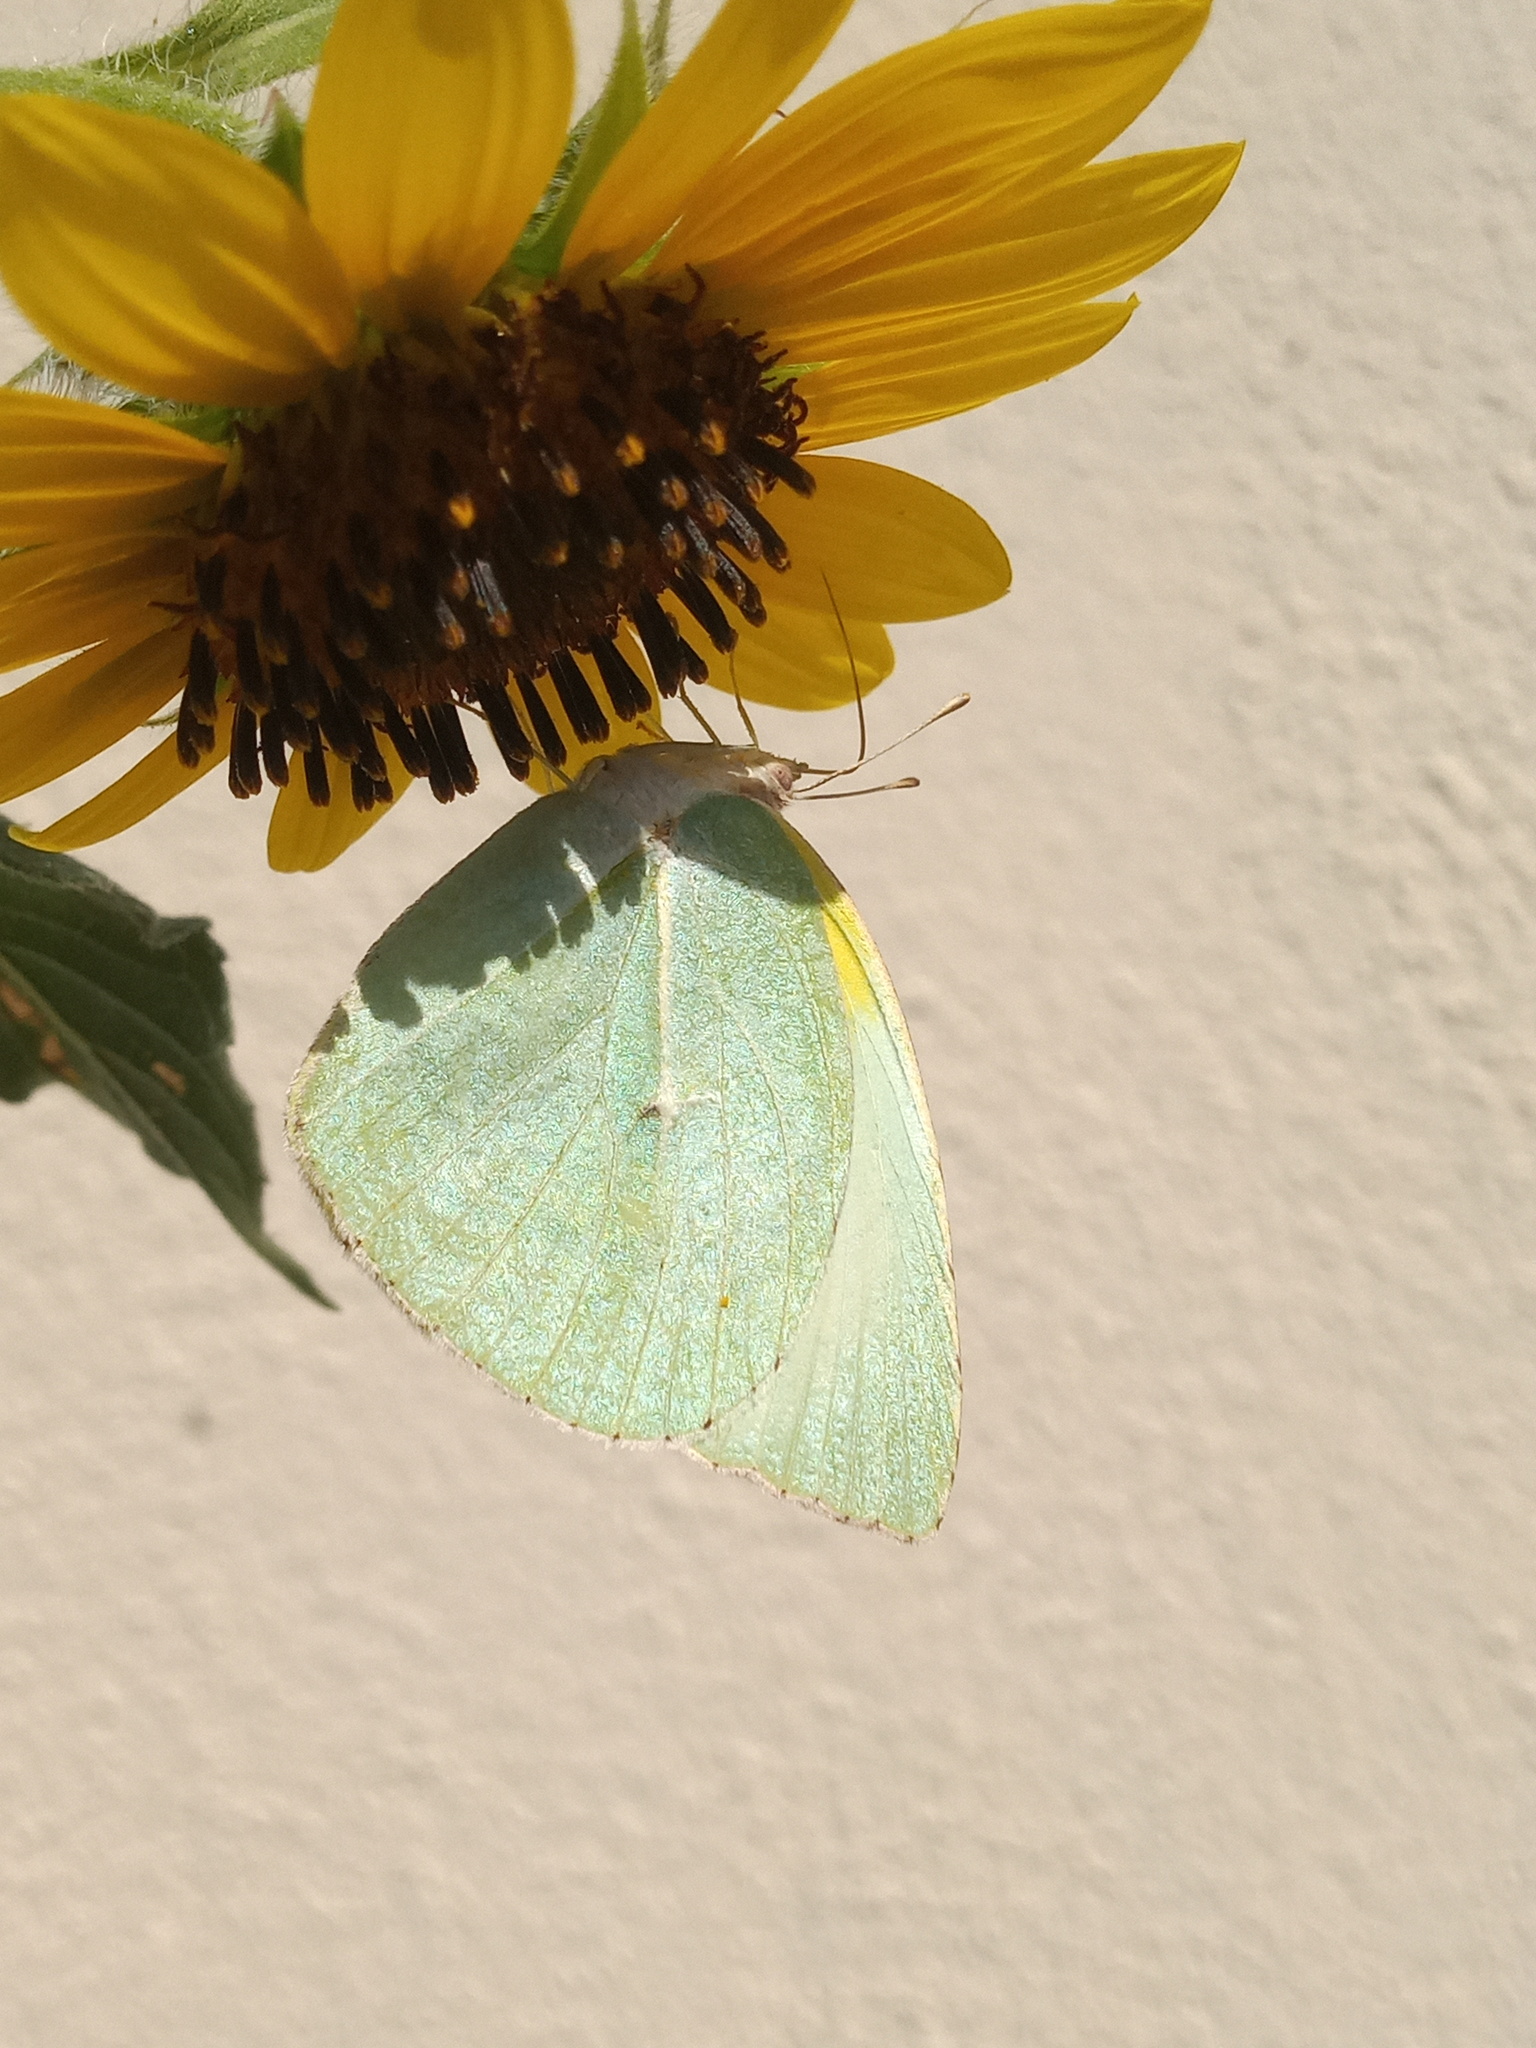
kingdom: Animalia
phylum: Arthropoda
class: Insecta
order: Lepidoptera
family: Pieridae
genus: Kricogonia
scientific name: Kricogonia lyside
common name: Guayacan sulphur,
